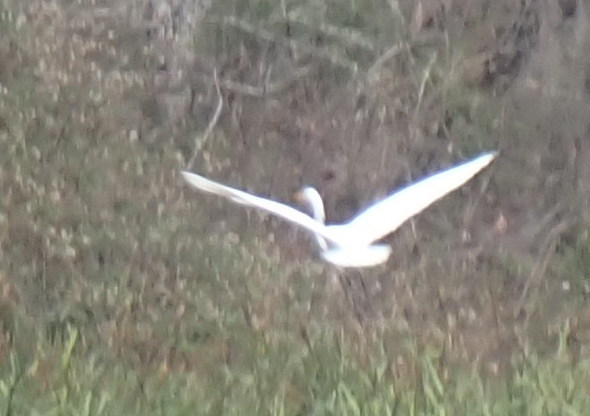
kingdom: Animalia
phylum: Chordata
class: Aves
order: Pelecaniformes
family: Ardeidae
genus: Ardea
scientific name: Ardea alba
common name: Great egret
